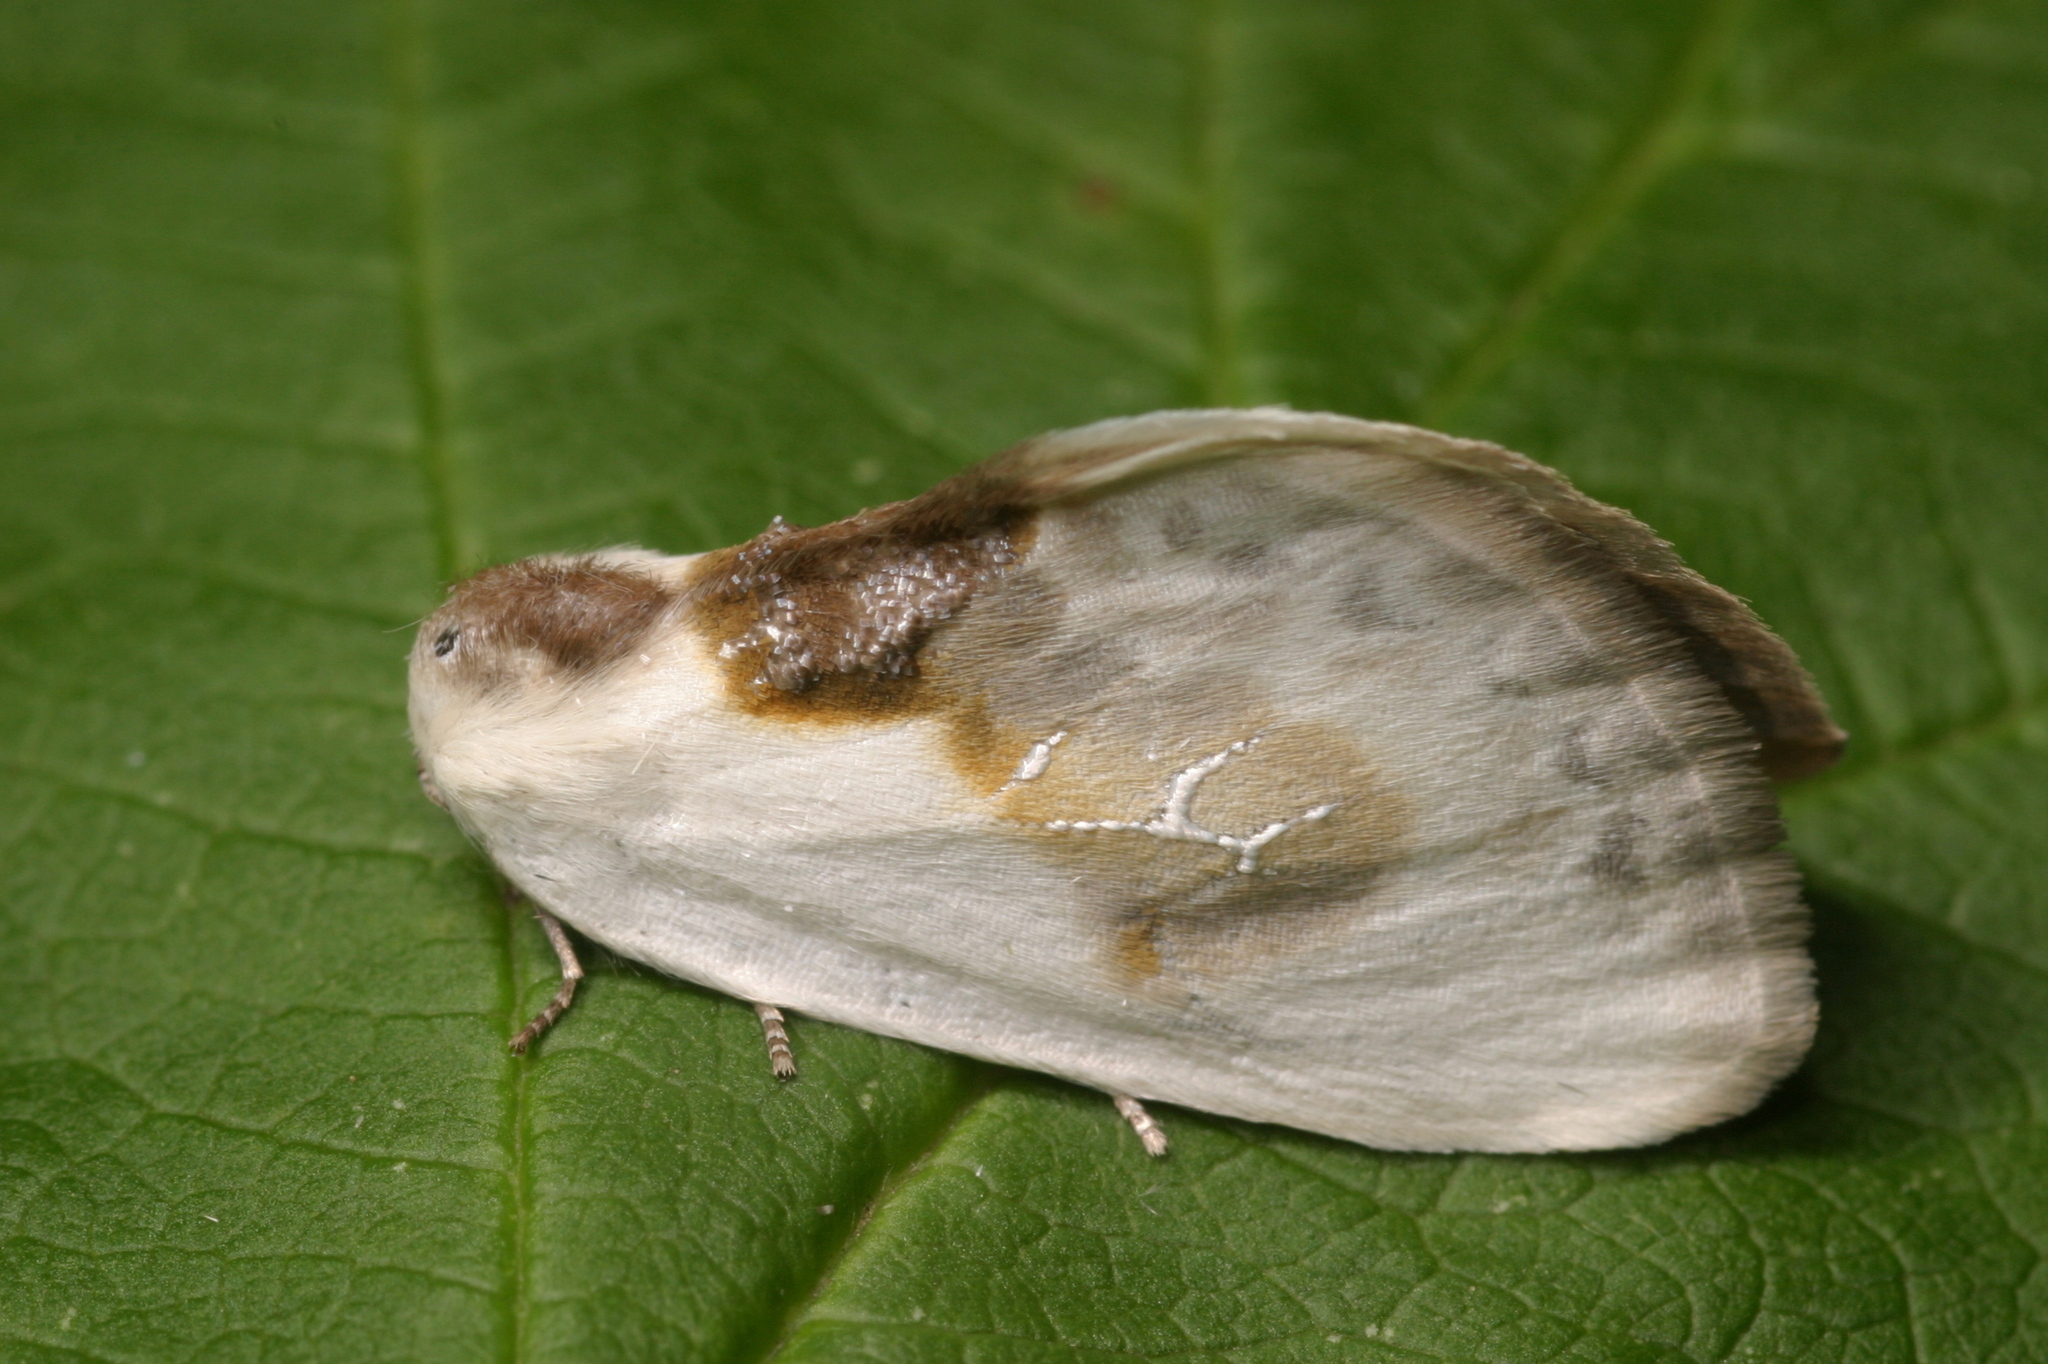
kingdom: Animalia
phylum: Arthropoda
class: Insecta
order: Lepidoptera
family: Drepanidae
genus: Cilix
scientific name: Cilix glaucata
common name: Chinese character
